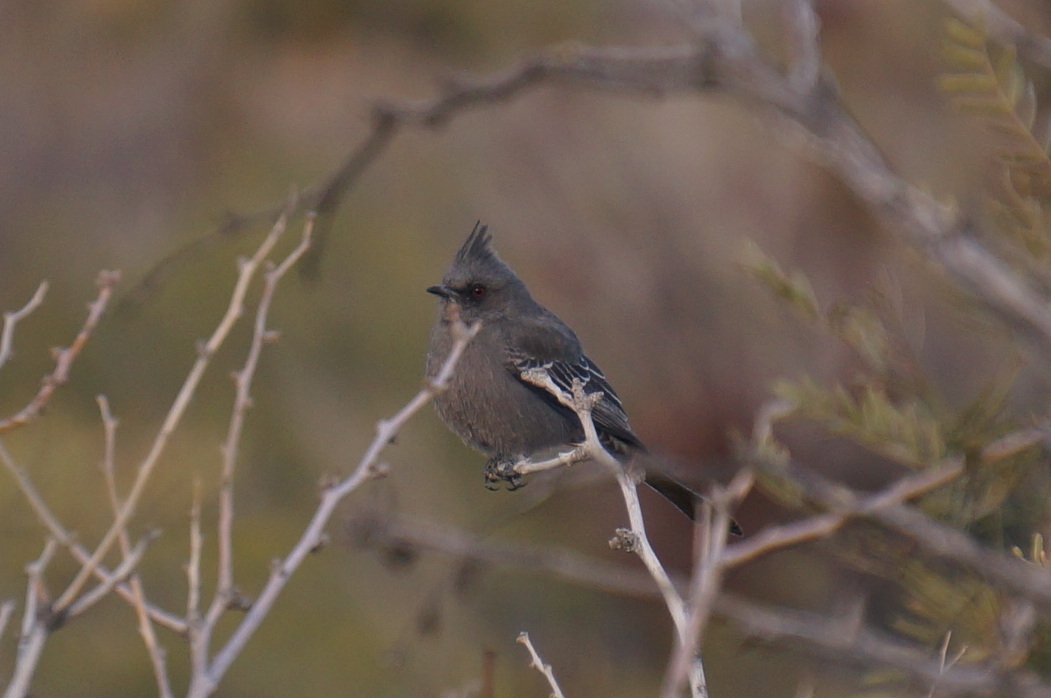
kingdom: Animalia
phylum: Chordata
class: Aves
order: Passeriformes
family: Ptilogonatidae
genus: Phainopepla
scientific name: Phainopepla nitens
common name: Phainopepla
